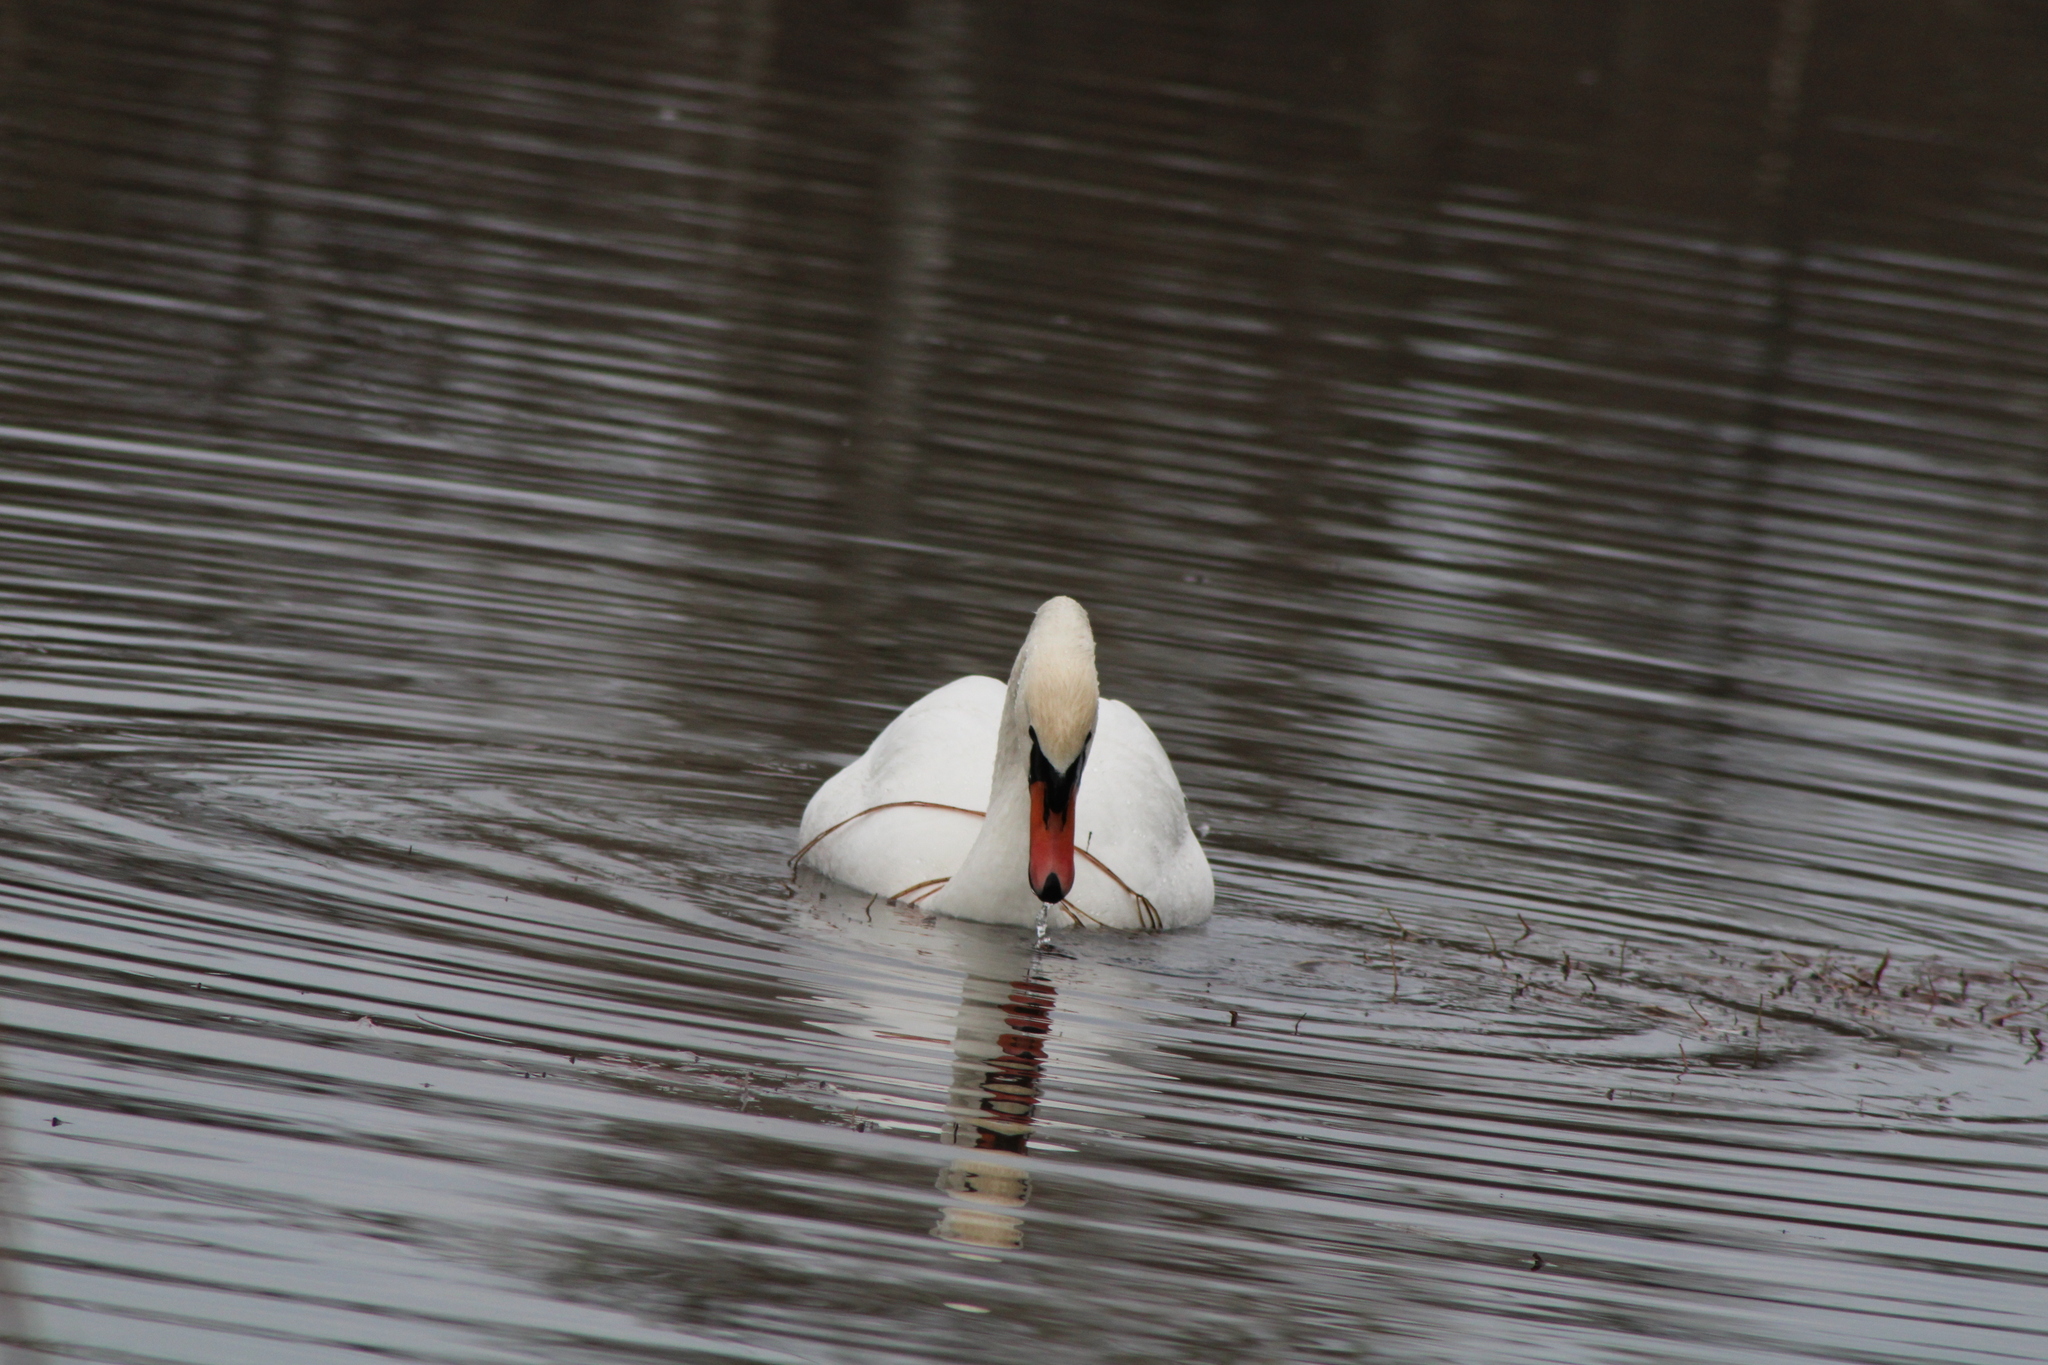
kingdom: Animalia
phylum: Chordata
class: Aves
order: Anseriformes
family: Anatidae
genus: Cygnus
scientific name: Cygnus olor
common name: Mute swan
